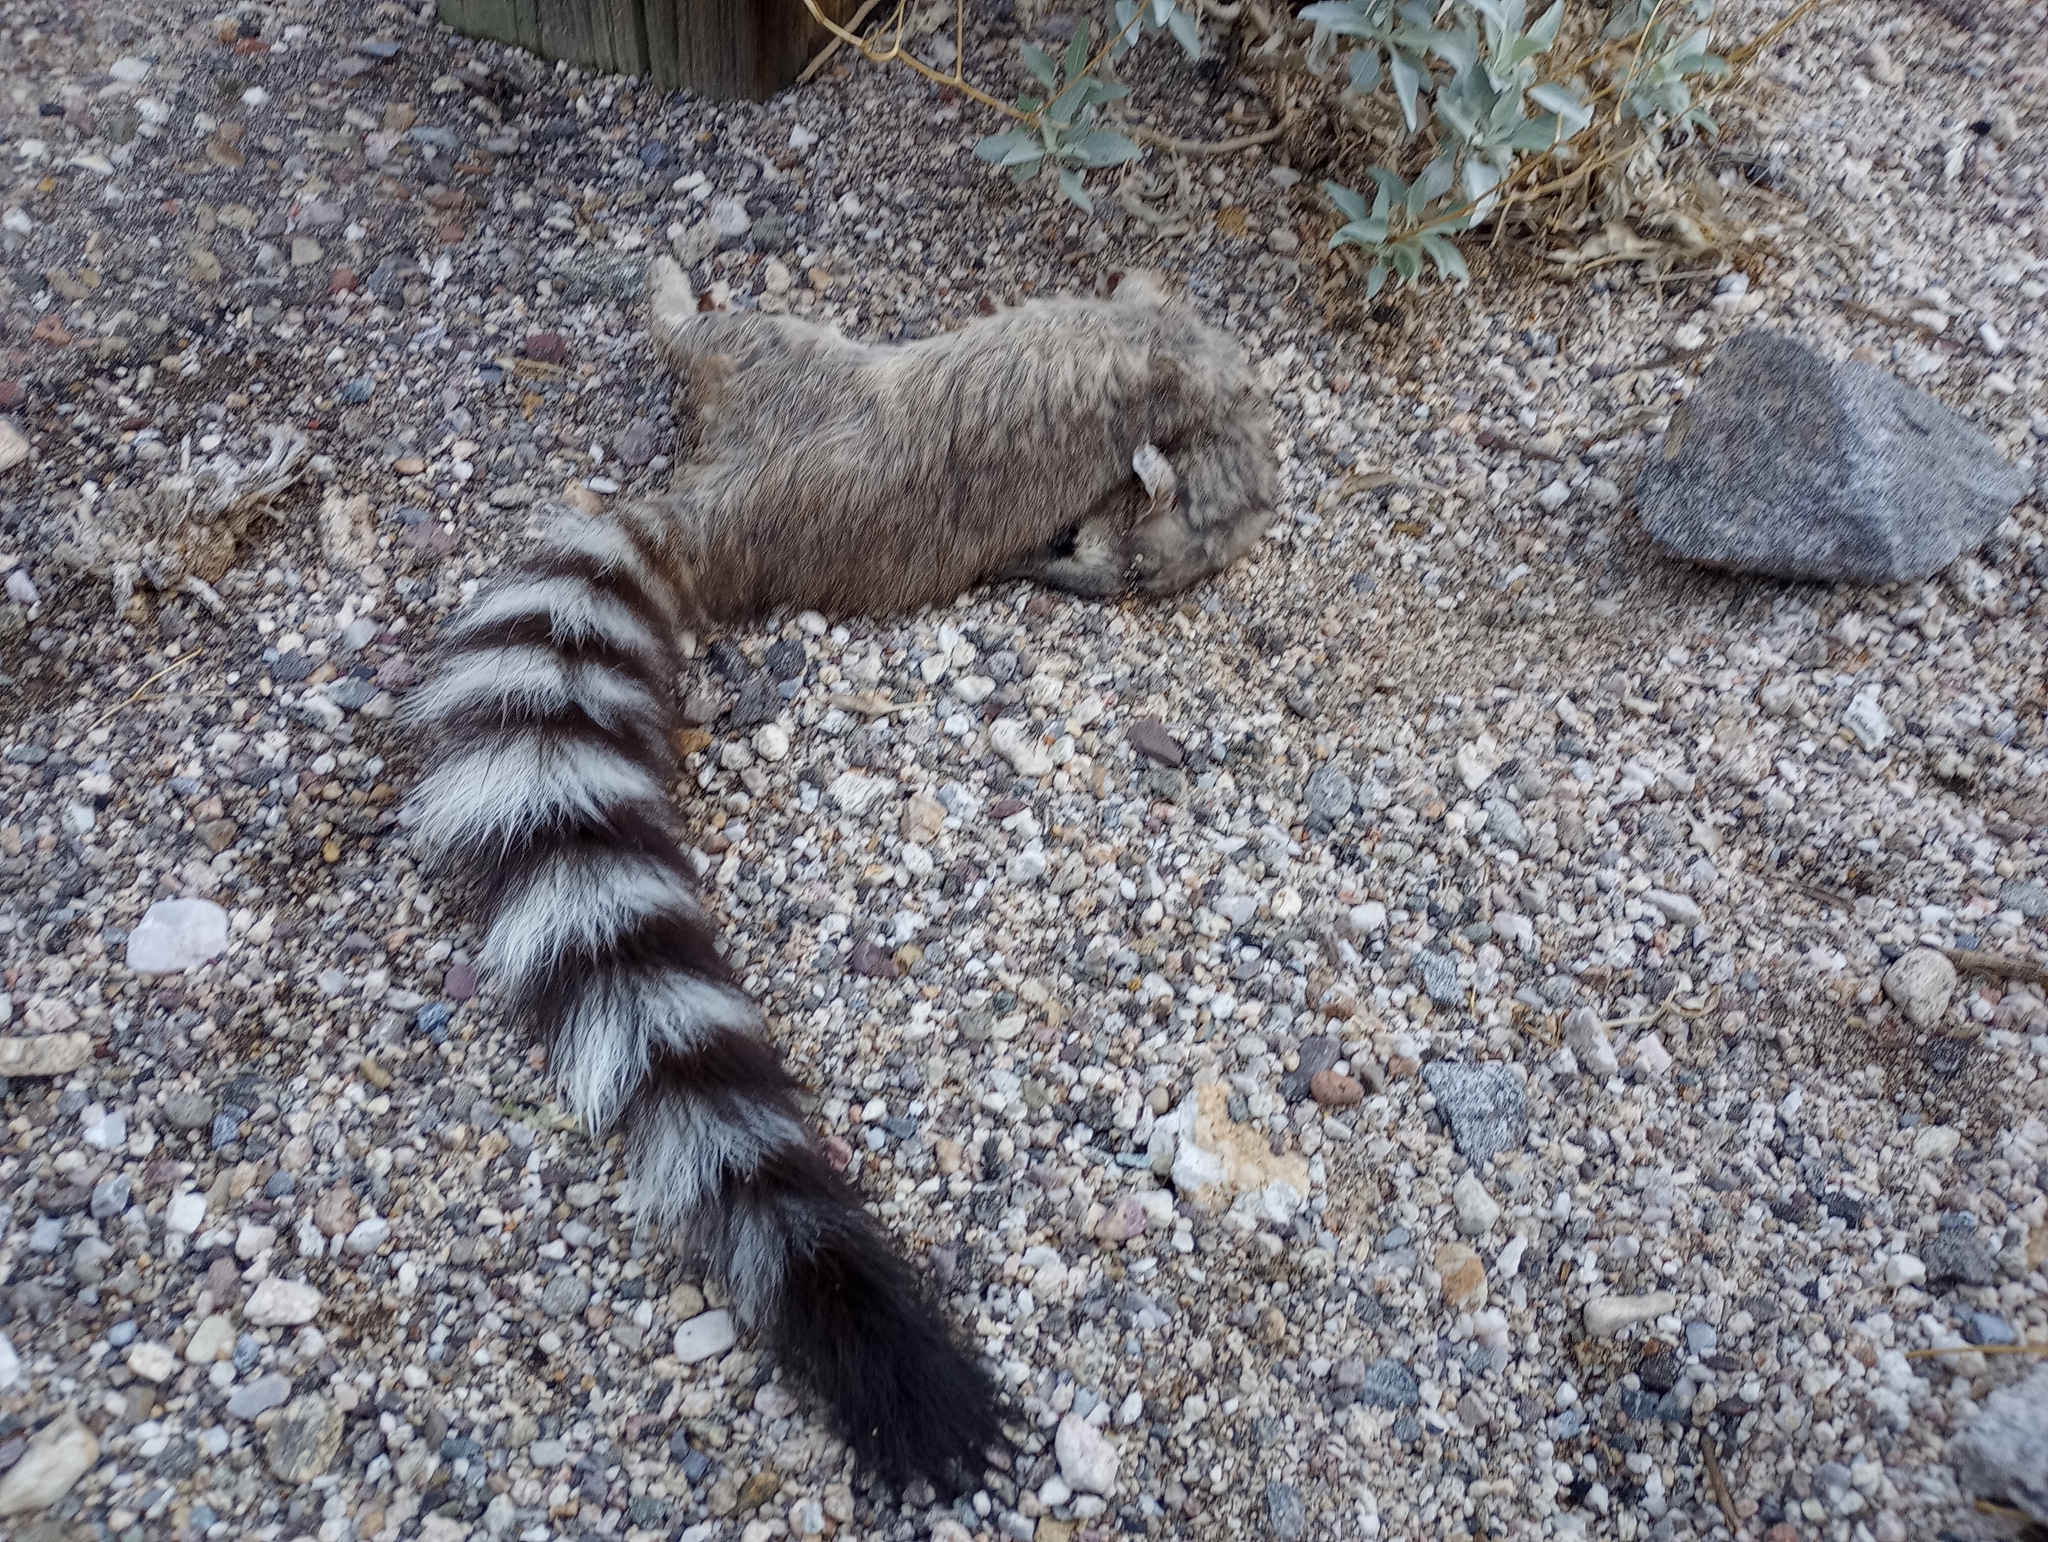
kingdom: Animalia
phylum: Chordata
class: Mammalia
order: Carnivora
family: Procyonidae
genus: Bassariscus
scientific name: Bassariscus astutus
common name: Ringtail
